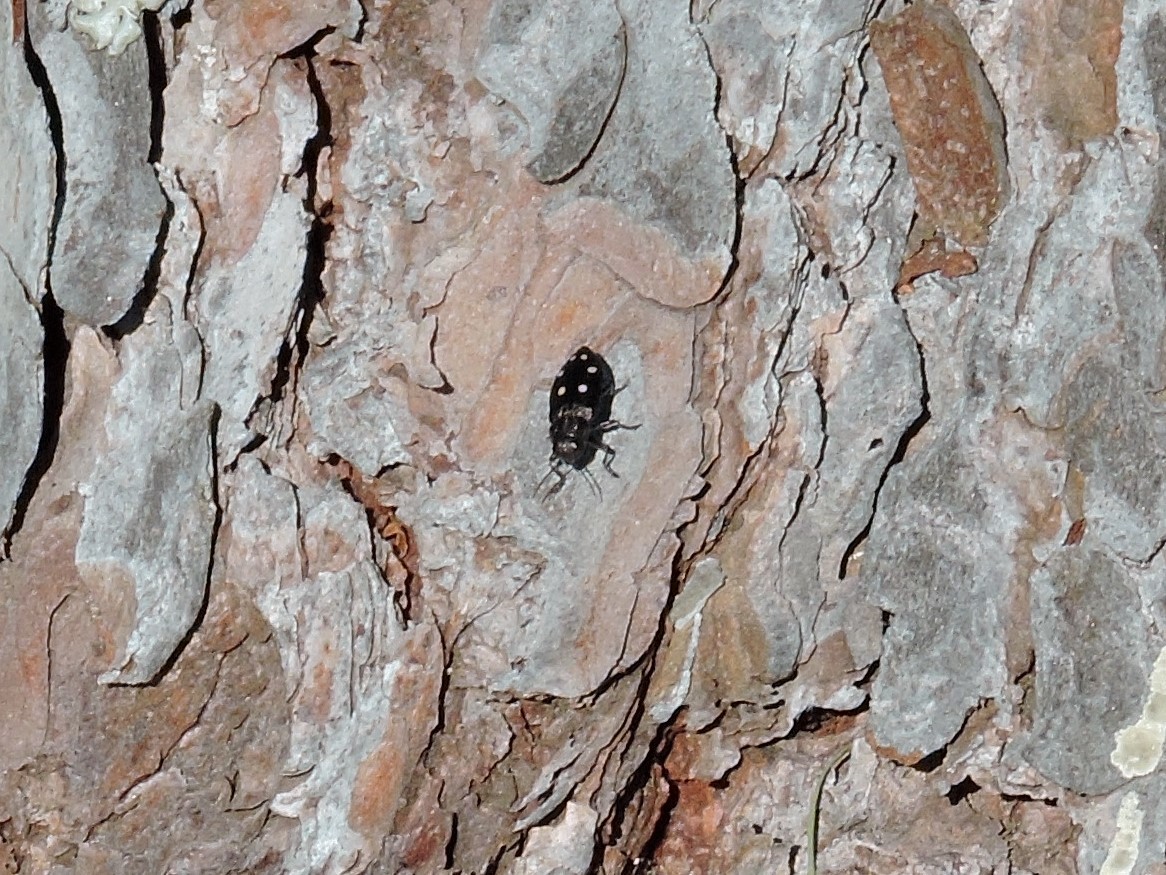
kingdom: Animalia
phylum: Arthropoda
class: Insecta
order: Coleoptera
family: Buprestidae
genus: Phaenops
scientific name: Phaenops guttulata
